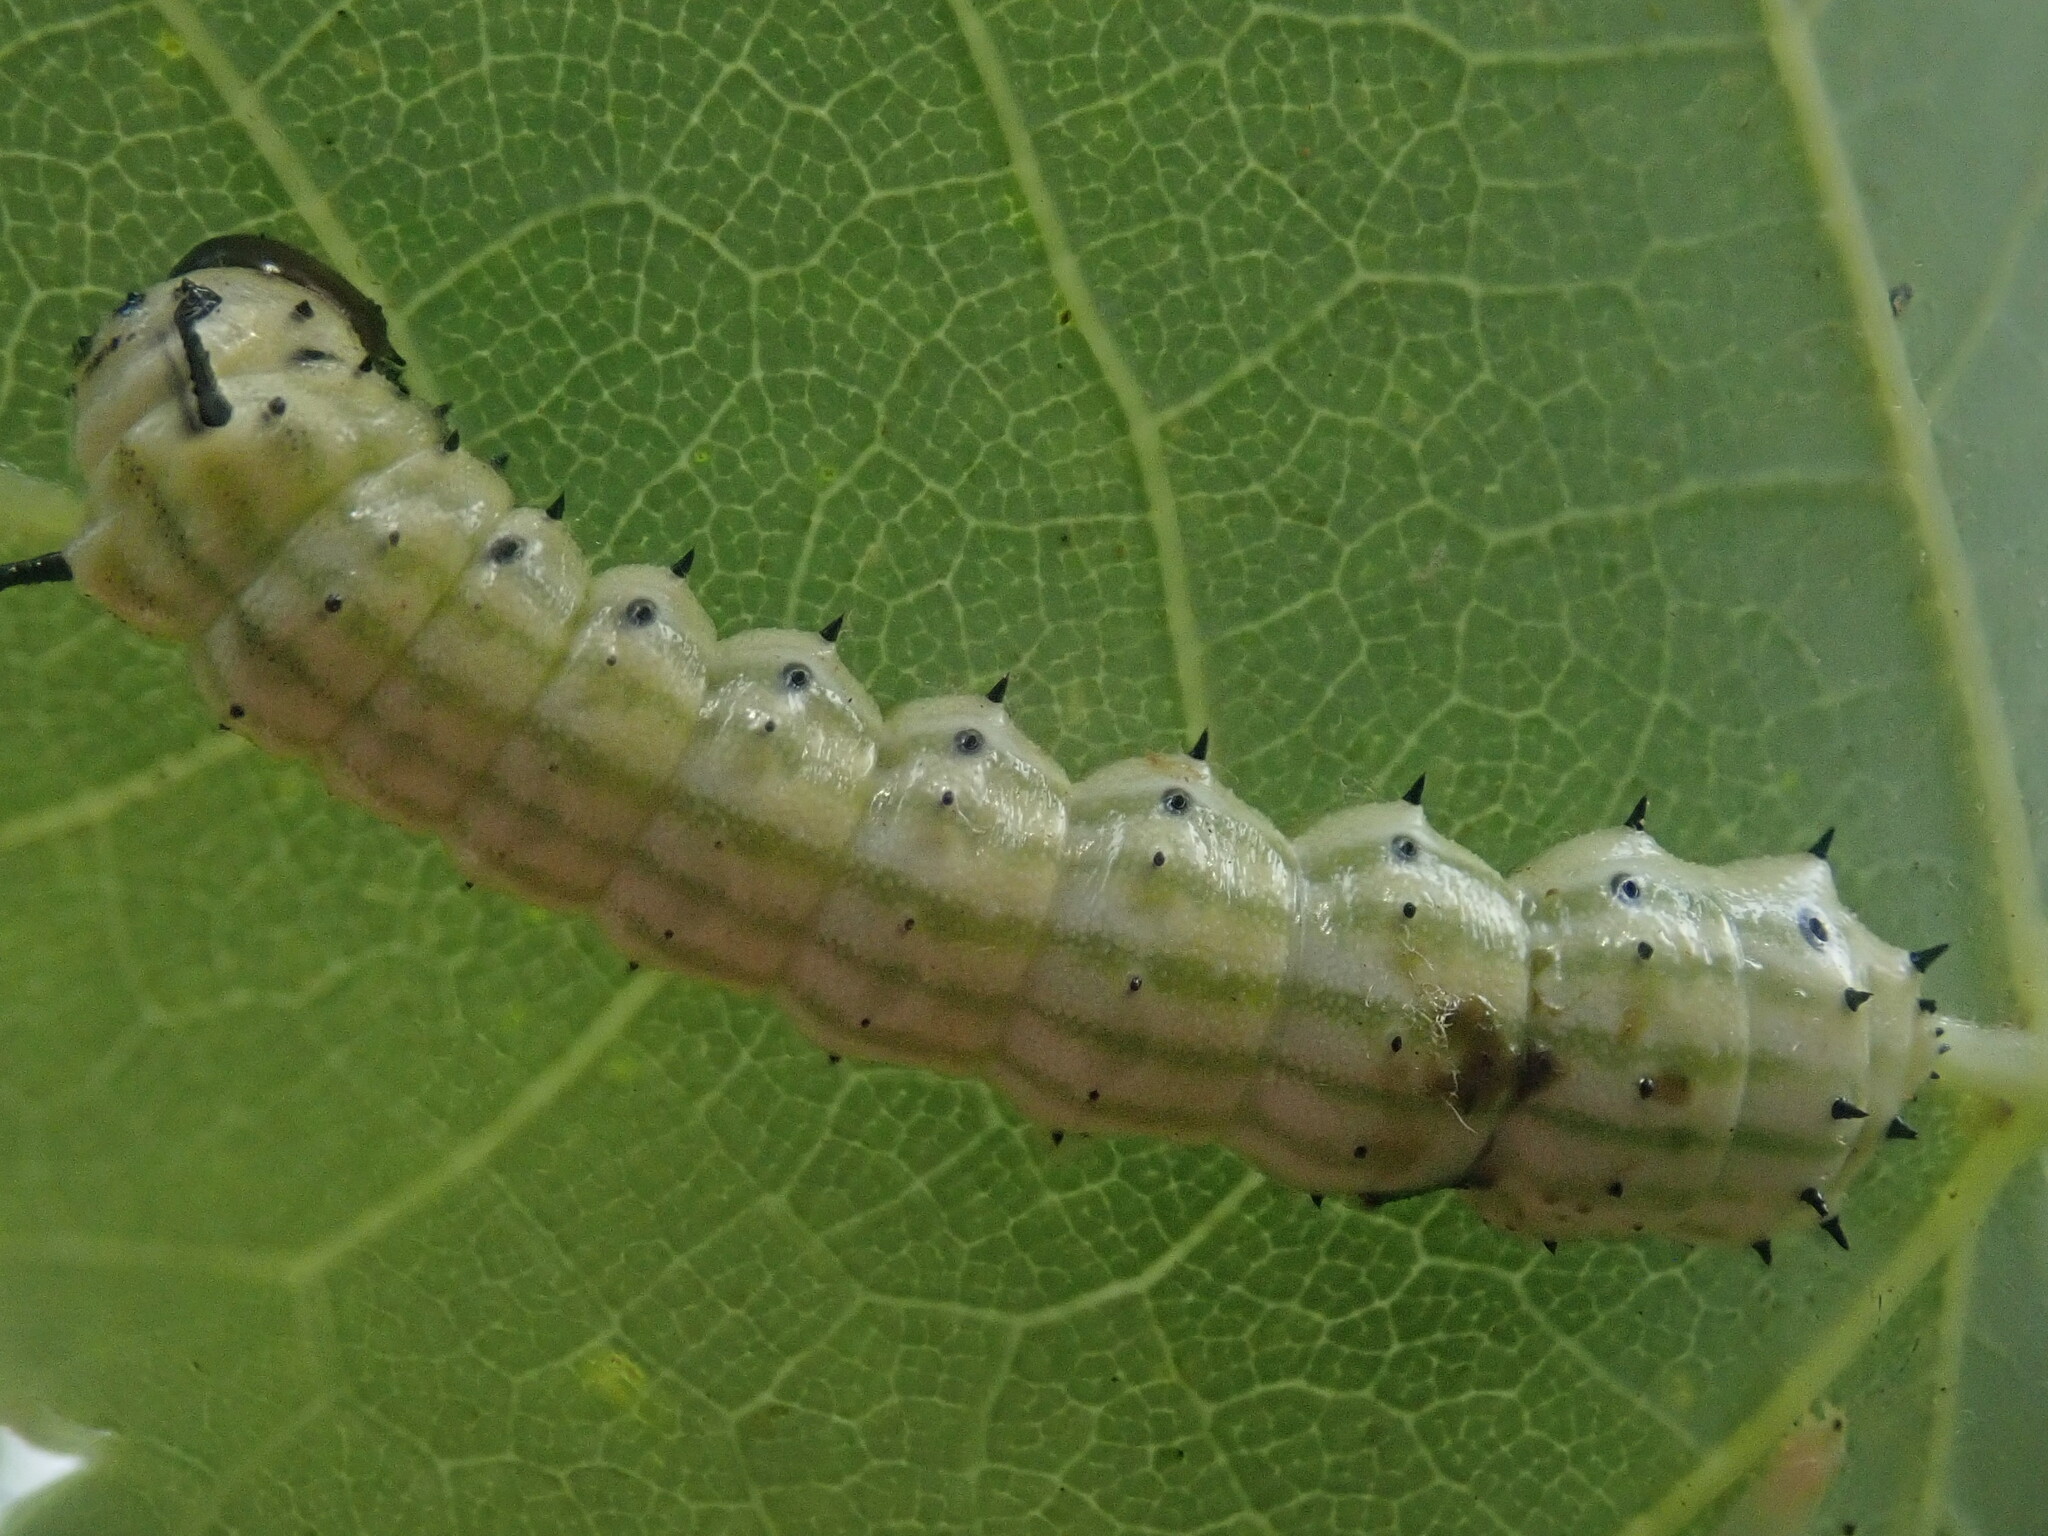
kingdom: Animalia
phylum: Arthropoda
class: Insecta
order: Lepidoptera
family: Saturniidae
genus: Dryocampa
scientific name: Dryocampa rubicunda
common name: Rosy maple moth
